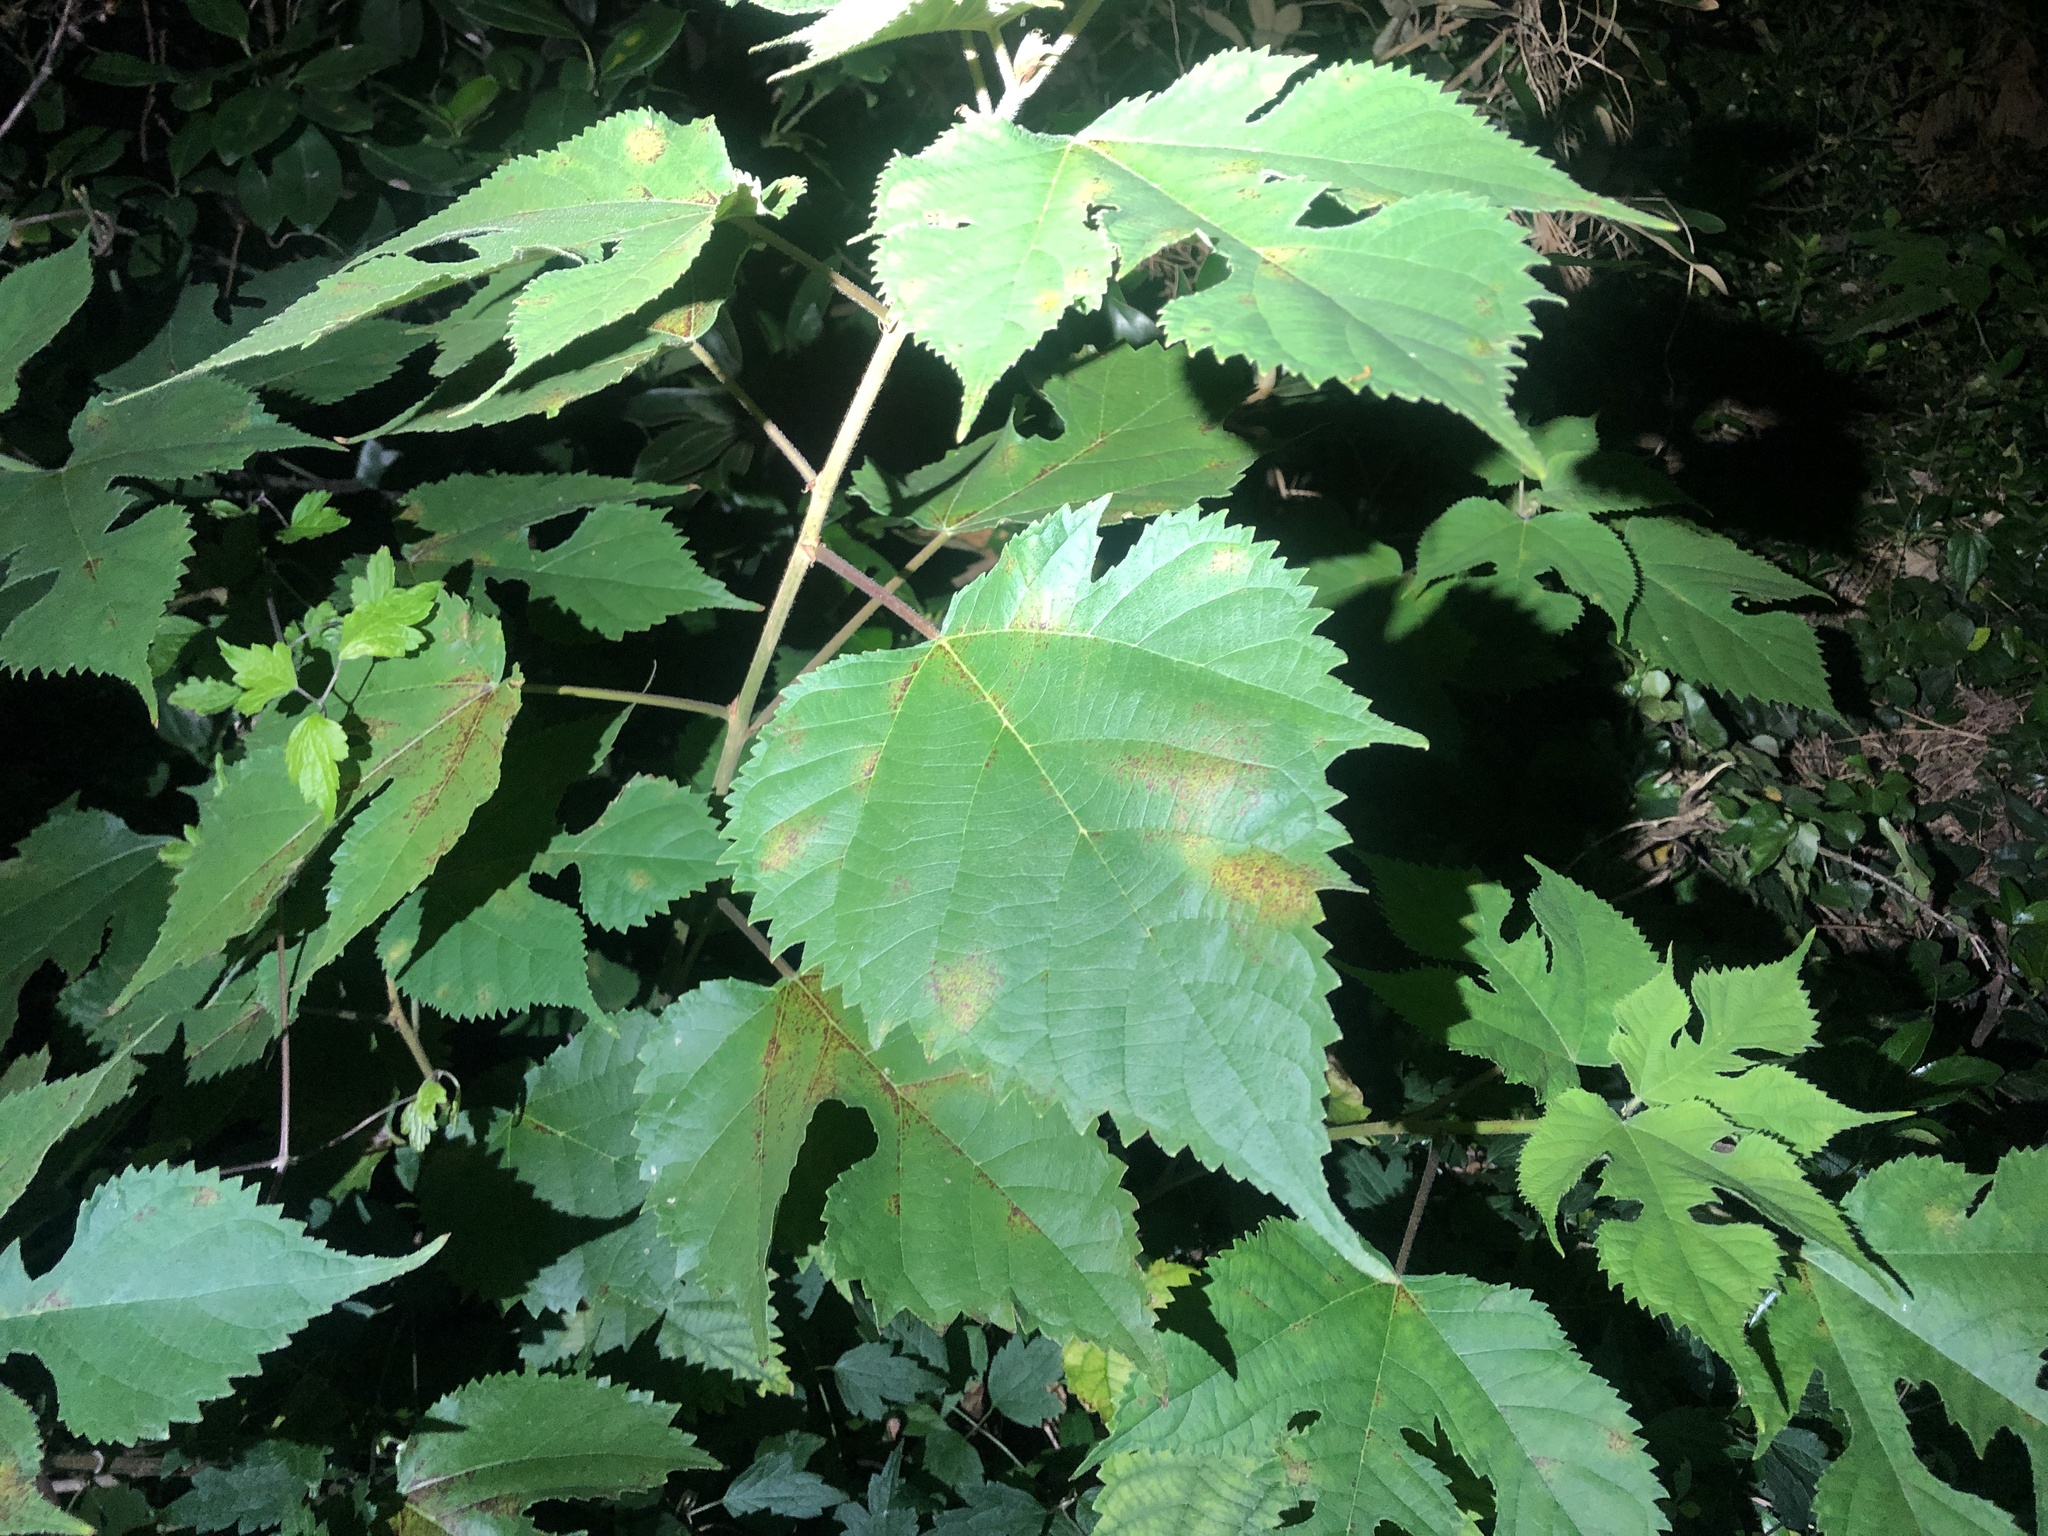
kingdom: Plantae
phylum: Tracheophyta
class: Magnoliopsida
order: Rosales
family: Moraceae
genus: Broussonetia
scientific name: Broussonetia papyrifera
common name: Paper mulberry
